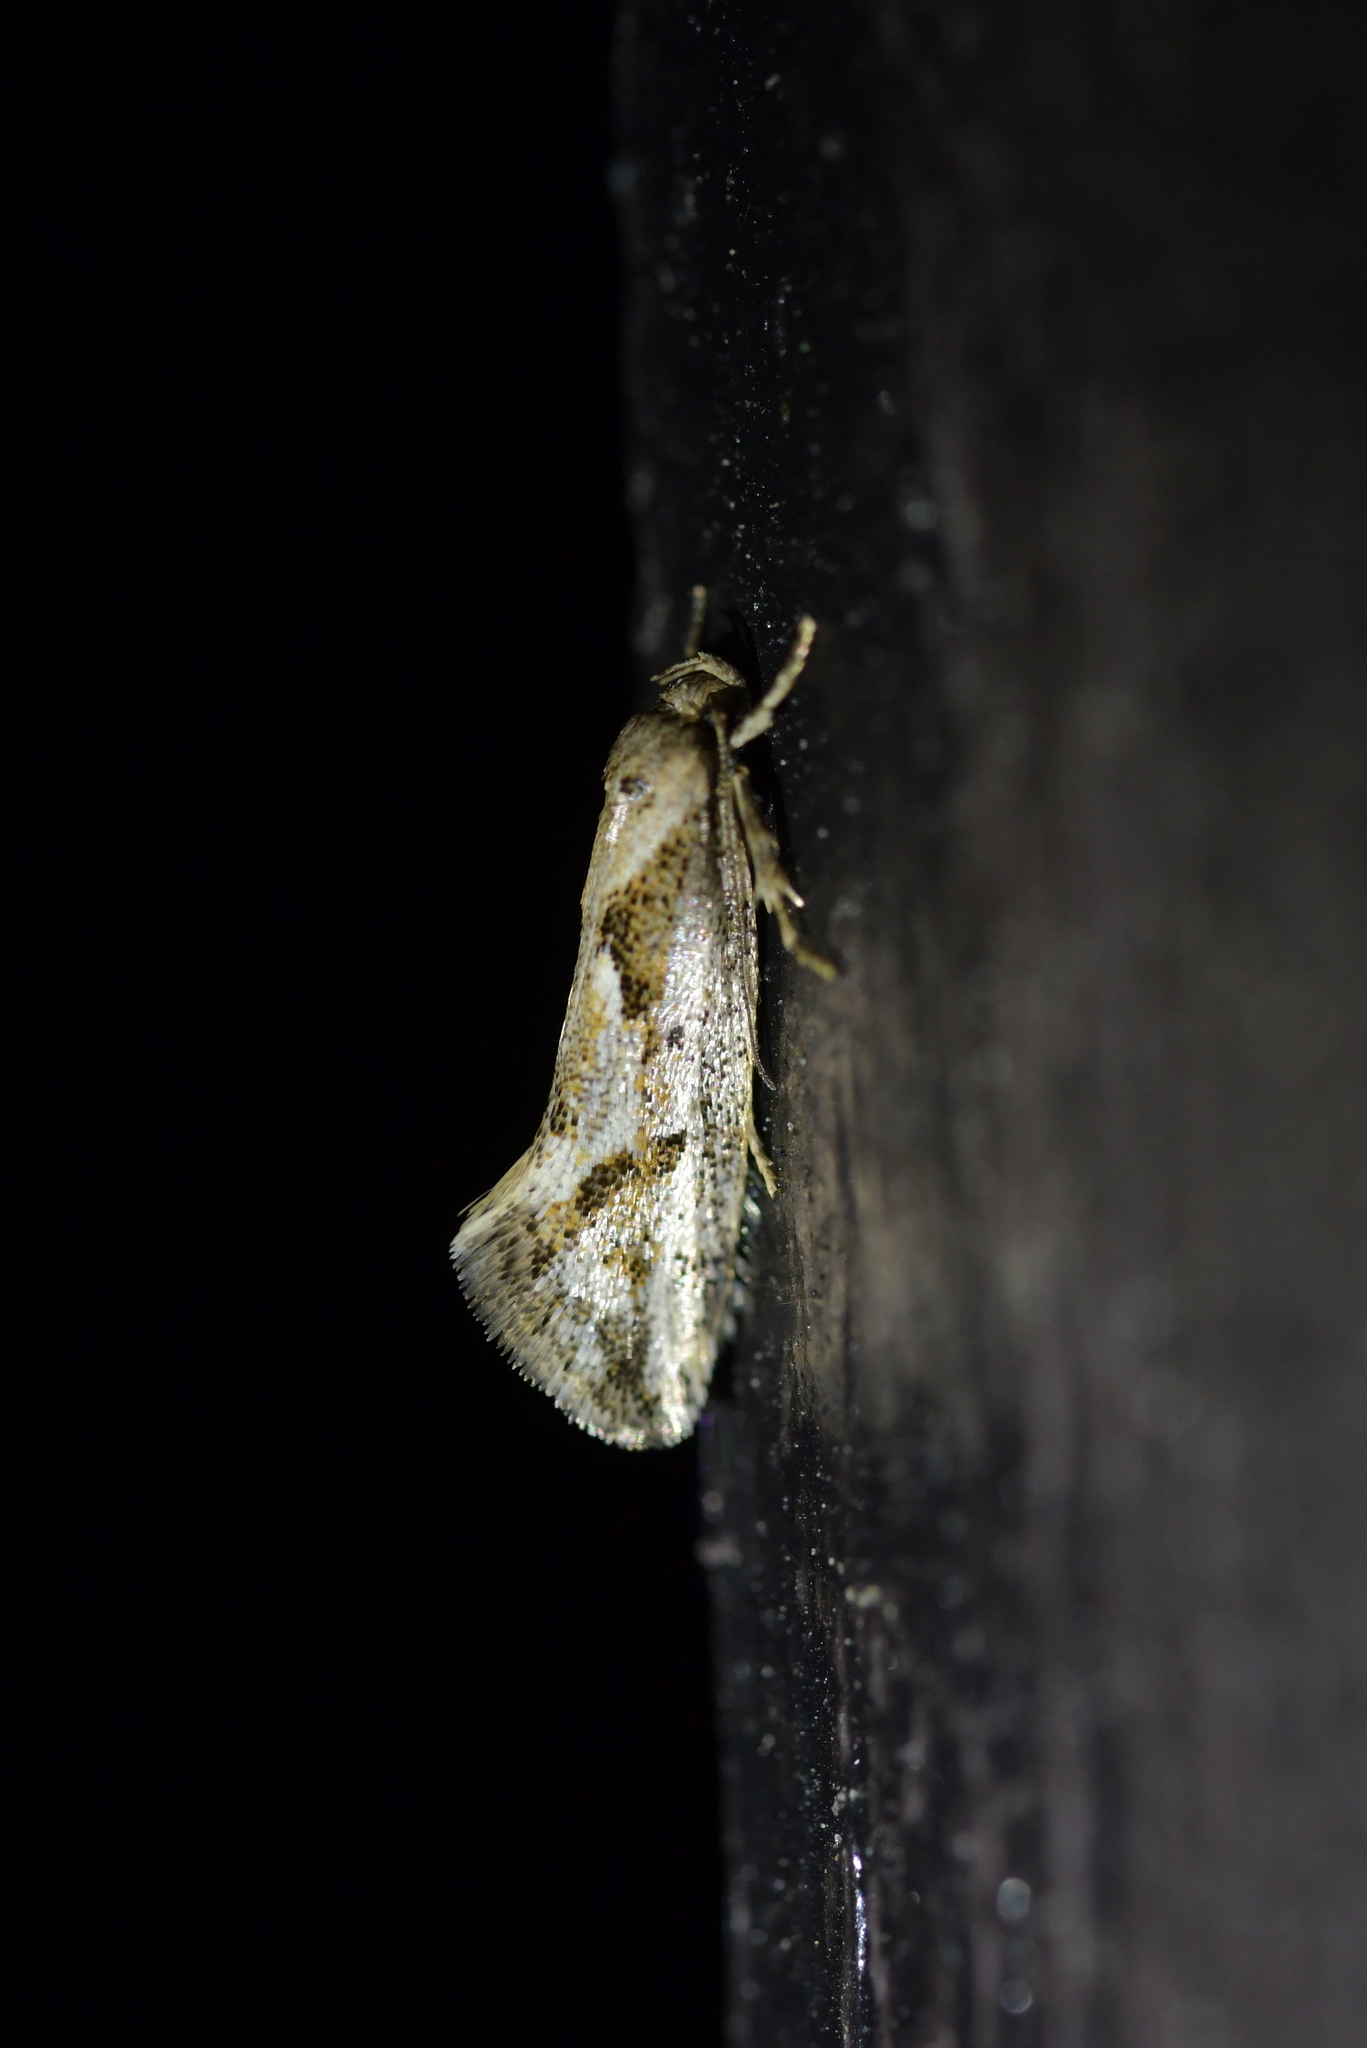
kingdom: Animalia
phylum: Arthropoda
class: Insecta
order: Lepidoptera
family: Oecophoridae
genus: Tingena
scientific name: Tingena hemimochla
